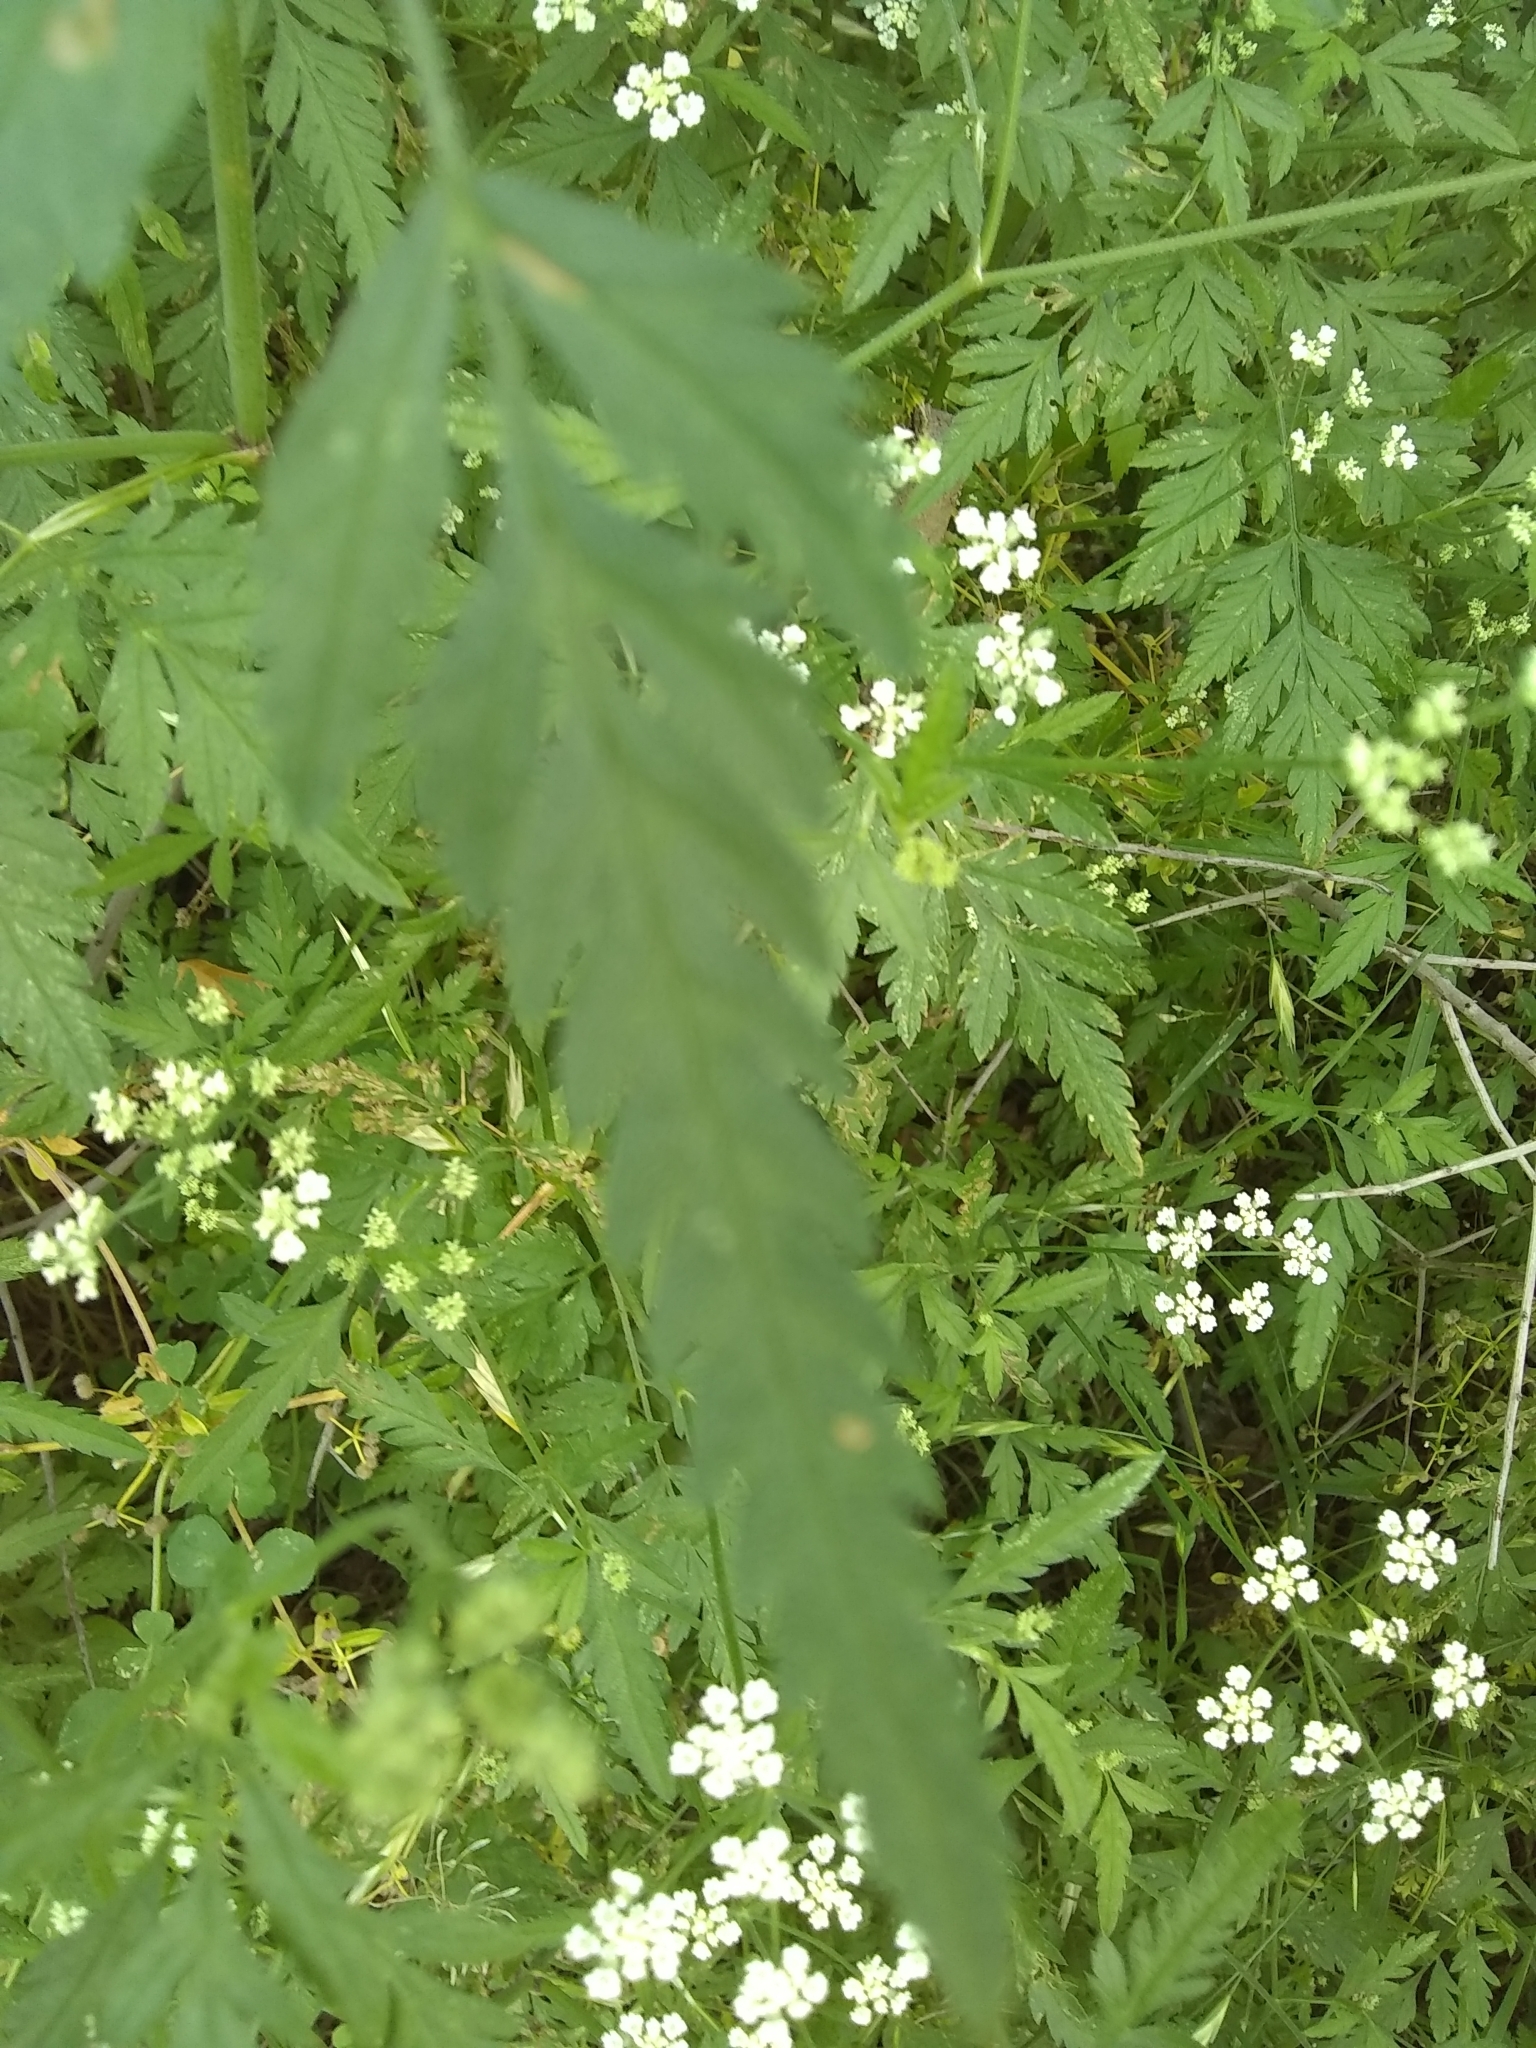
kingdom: Plantae
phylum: Tracheophyta
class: Magnoliopsida
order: Apiales
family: Apiaceae
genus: Torilis
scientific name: Torilis arvensis
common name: Spreading hedge-parsley
